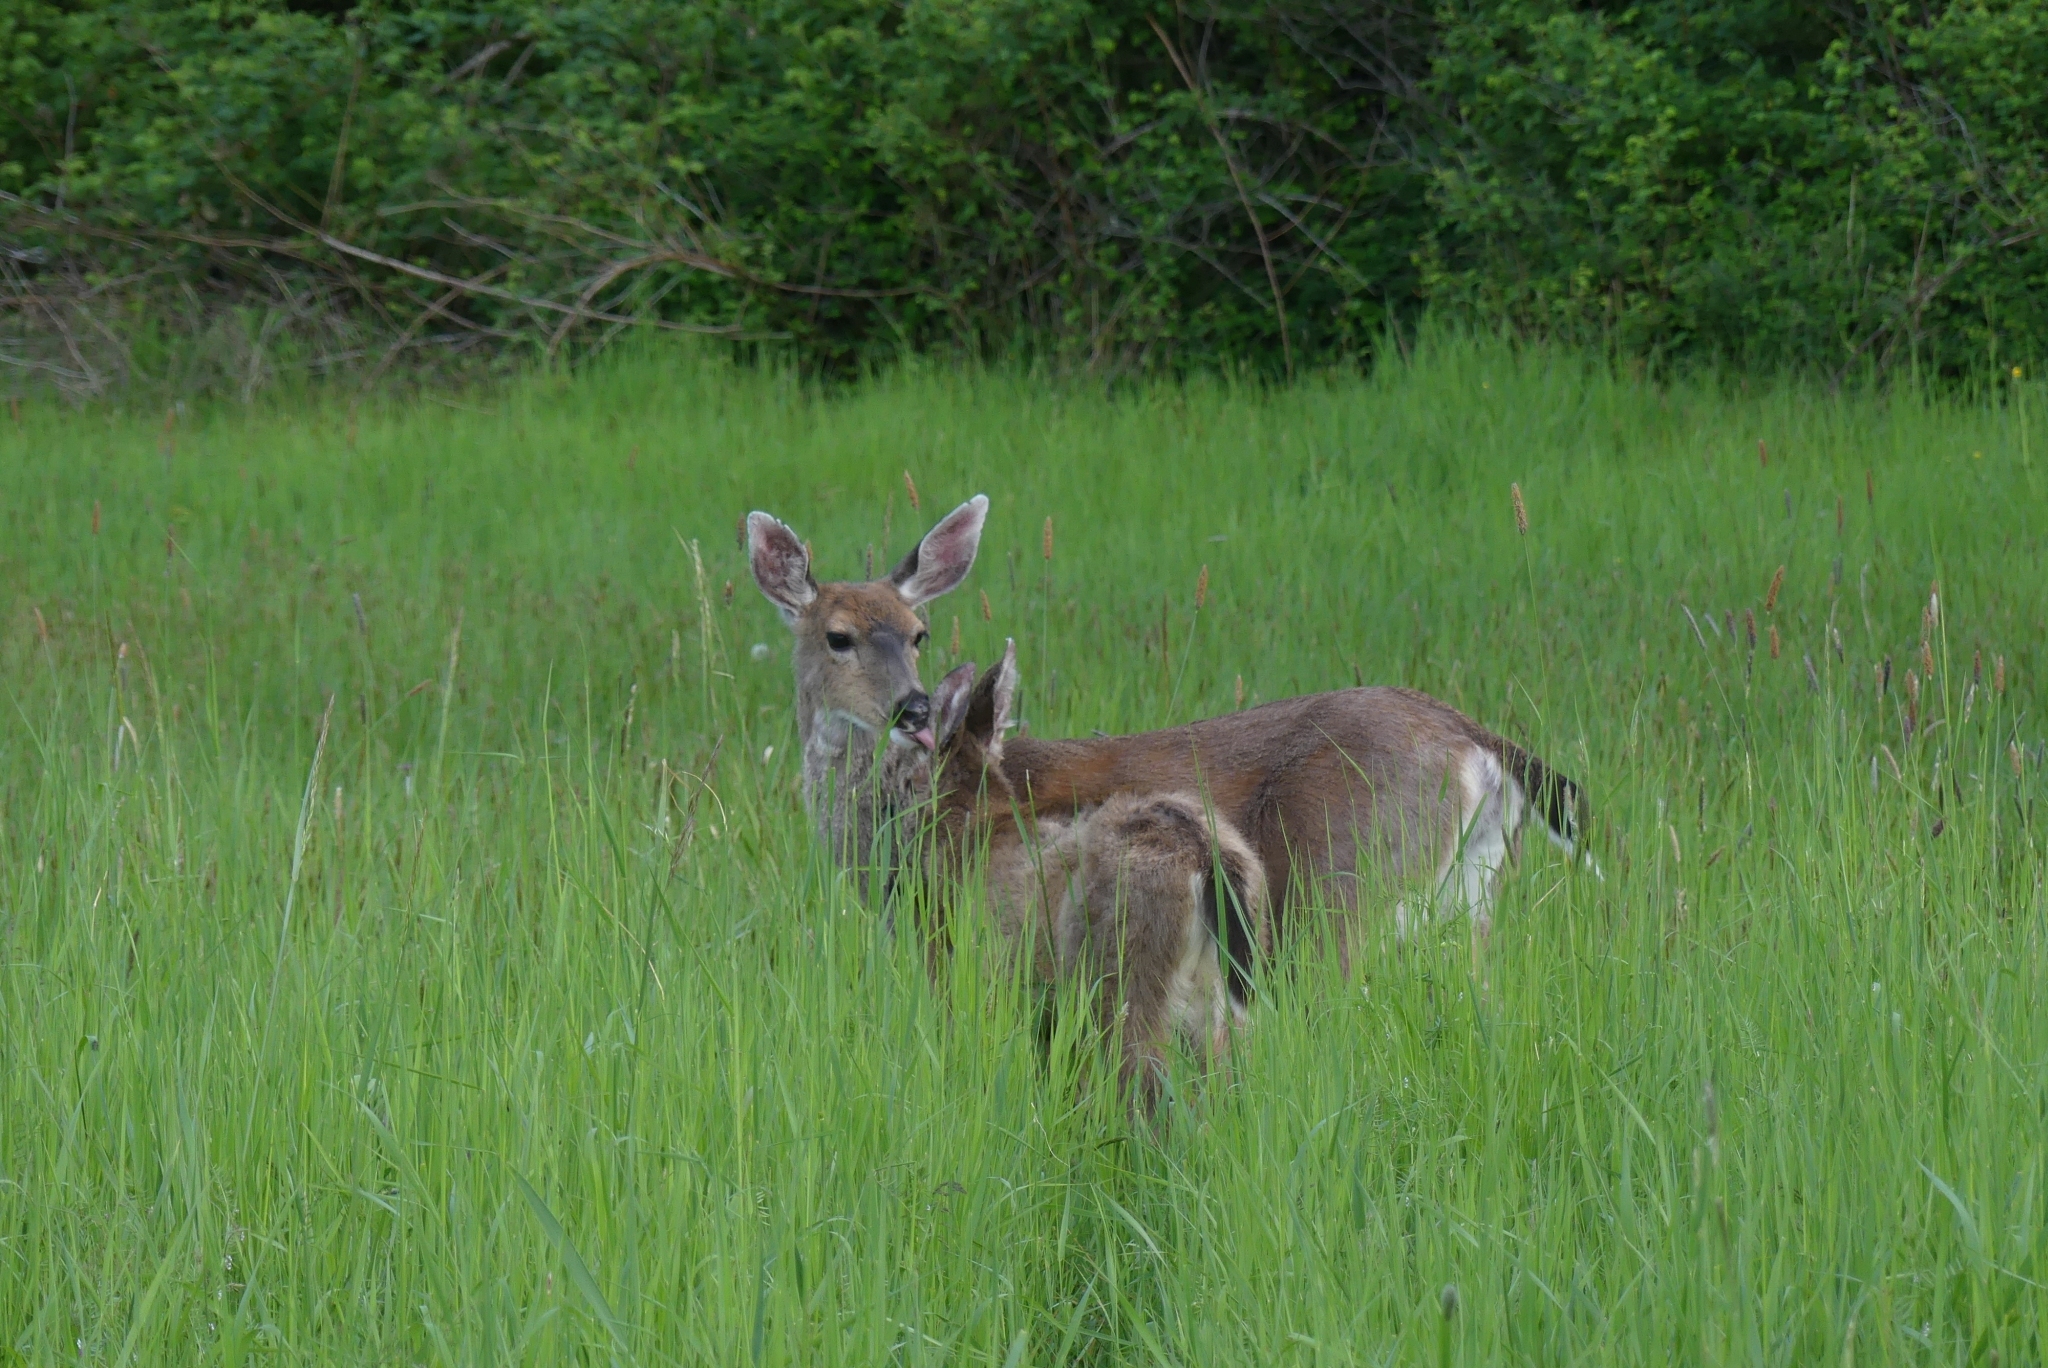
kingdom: Animalia
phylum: Chordata
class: Mammalia
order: Artiodactyla
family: Cervidae
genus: Odocoileus
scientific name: Odocoileus hemionus
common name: Mule deer
